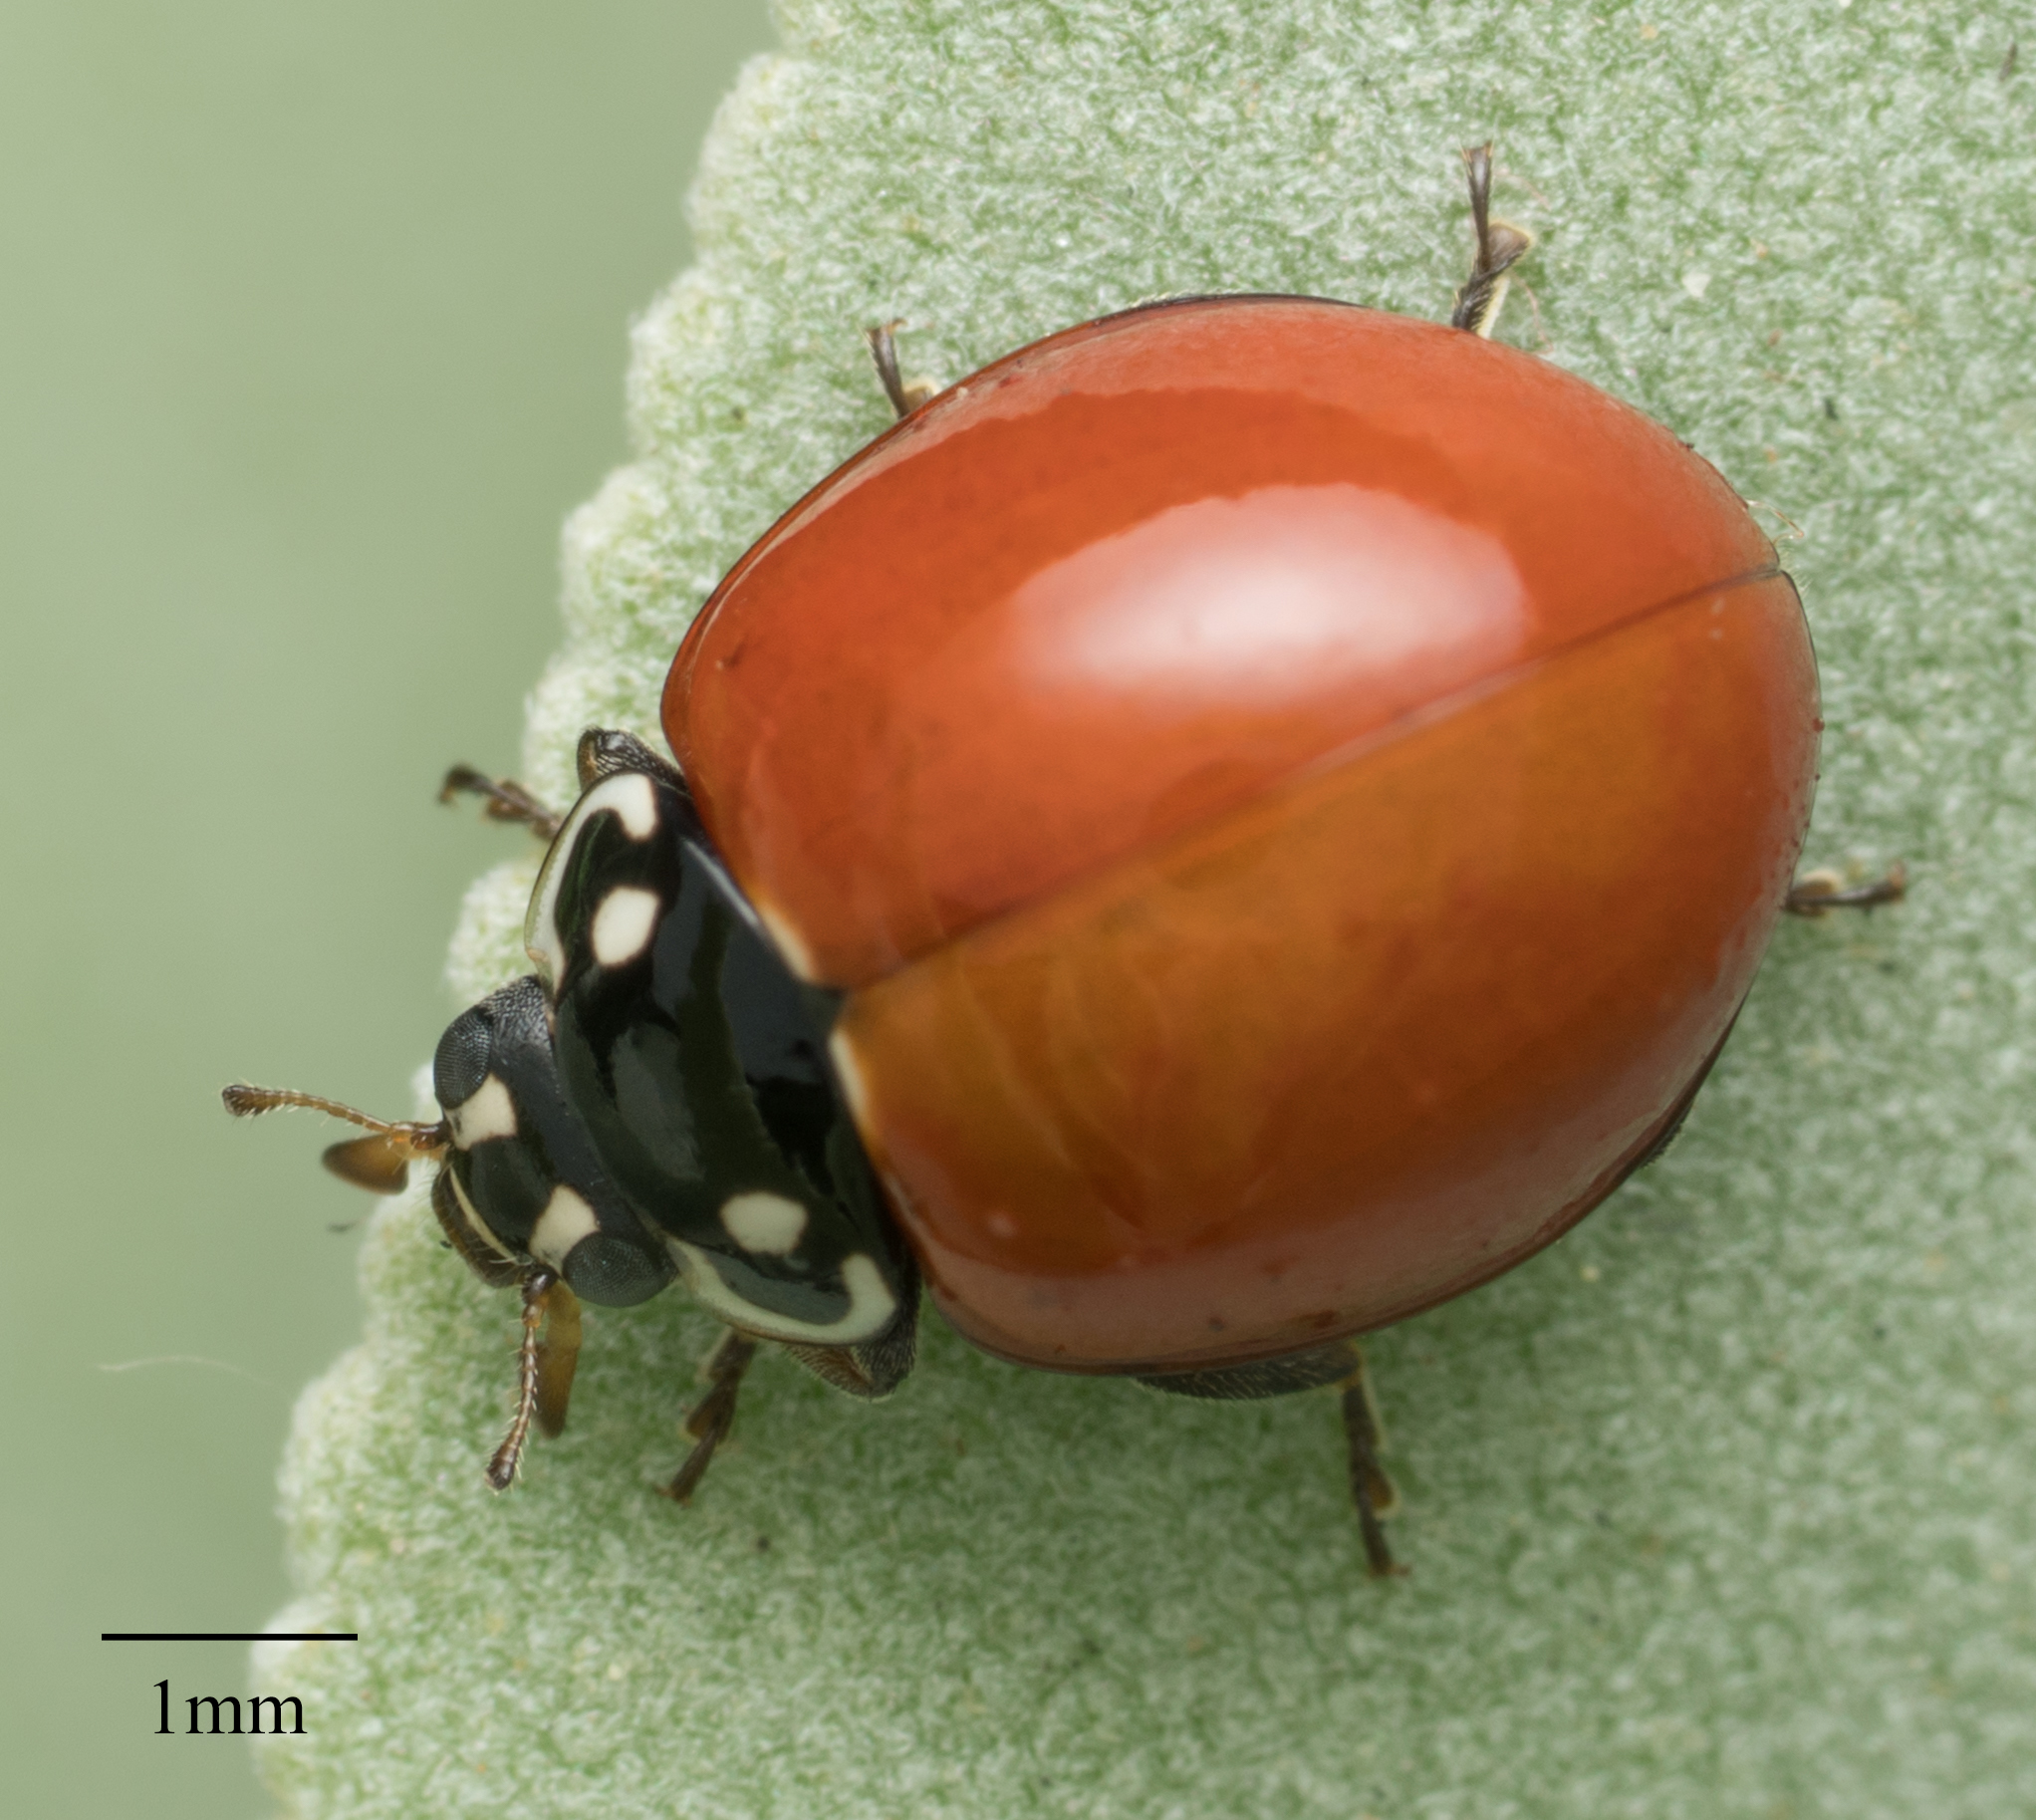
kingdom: Animalia
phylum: Arthropoda
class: Insecta
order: Coleoptera
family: Coccinellidae
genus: Cycloneda
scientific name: Cycloneda sanguinea
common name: Ladybird beetle
